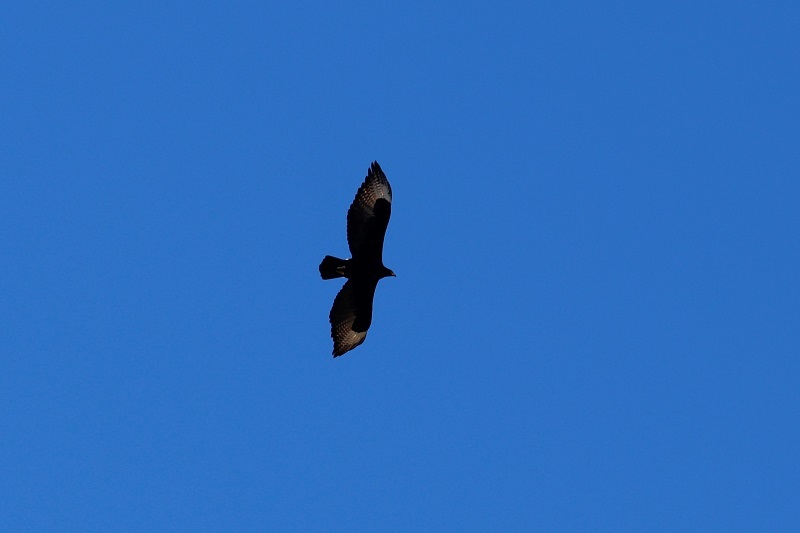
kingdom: Animalia
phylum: Chordata
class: Aves
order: Accipitriformes
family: Accipitridae
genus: Aquila
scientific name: Aquila verreauxii
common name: Verreaux's eagle
